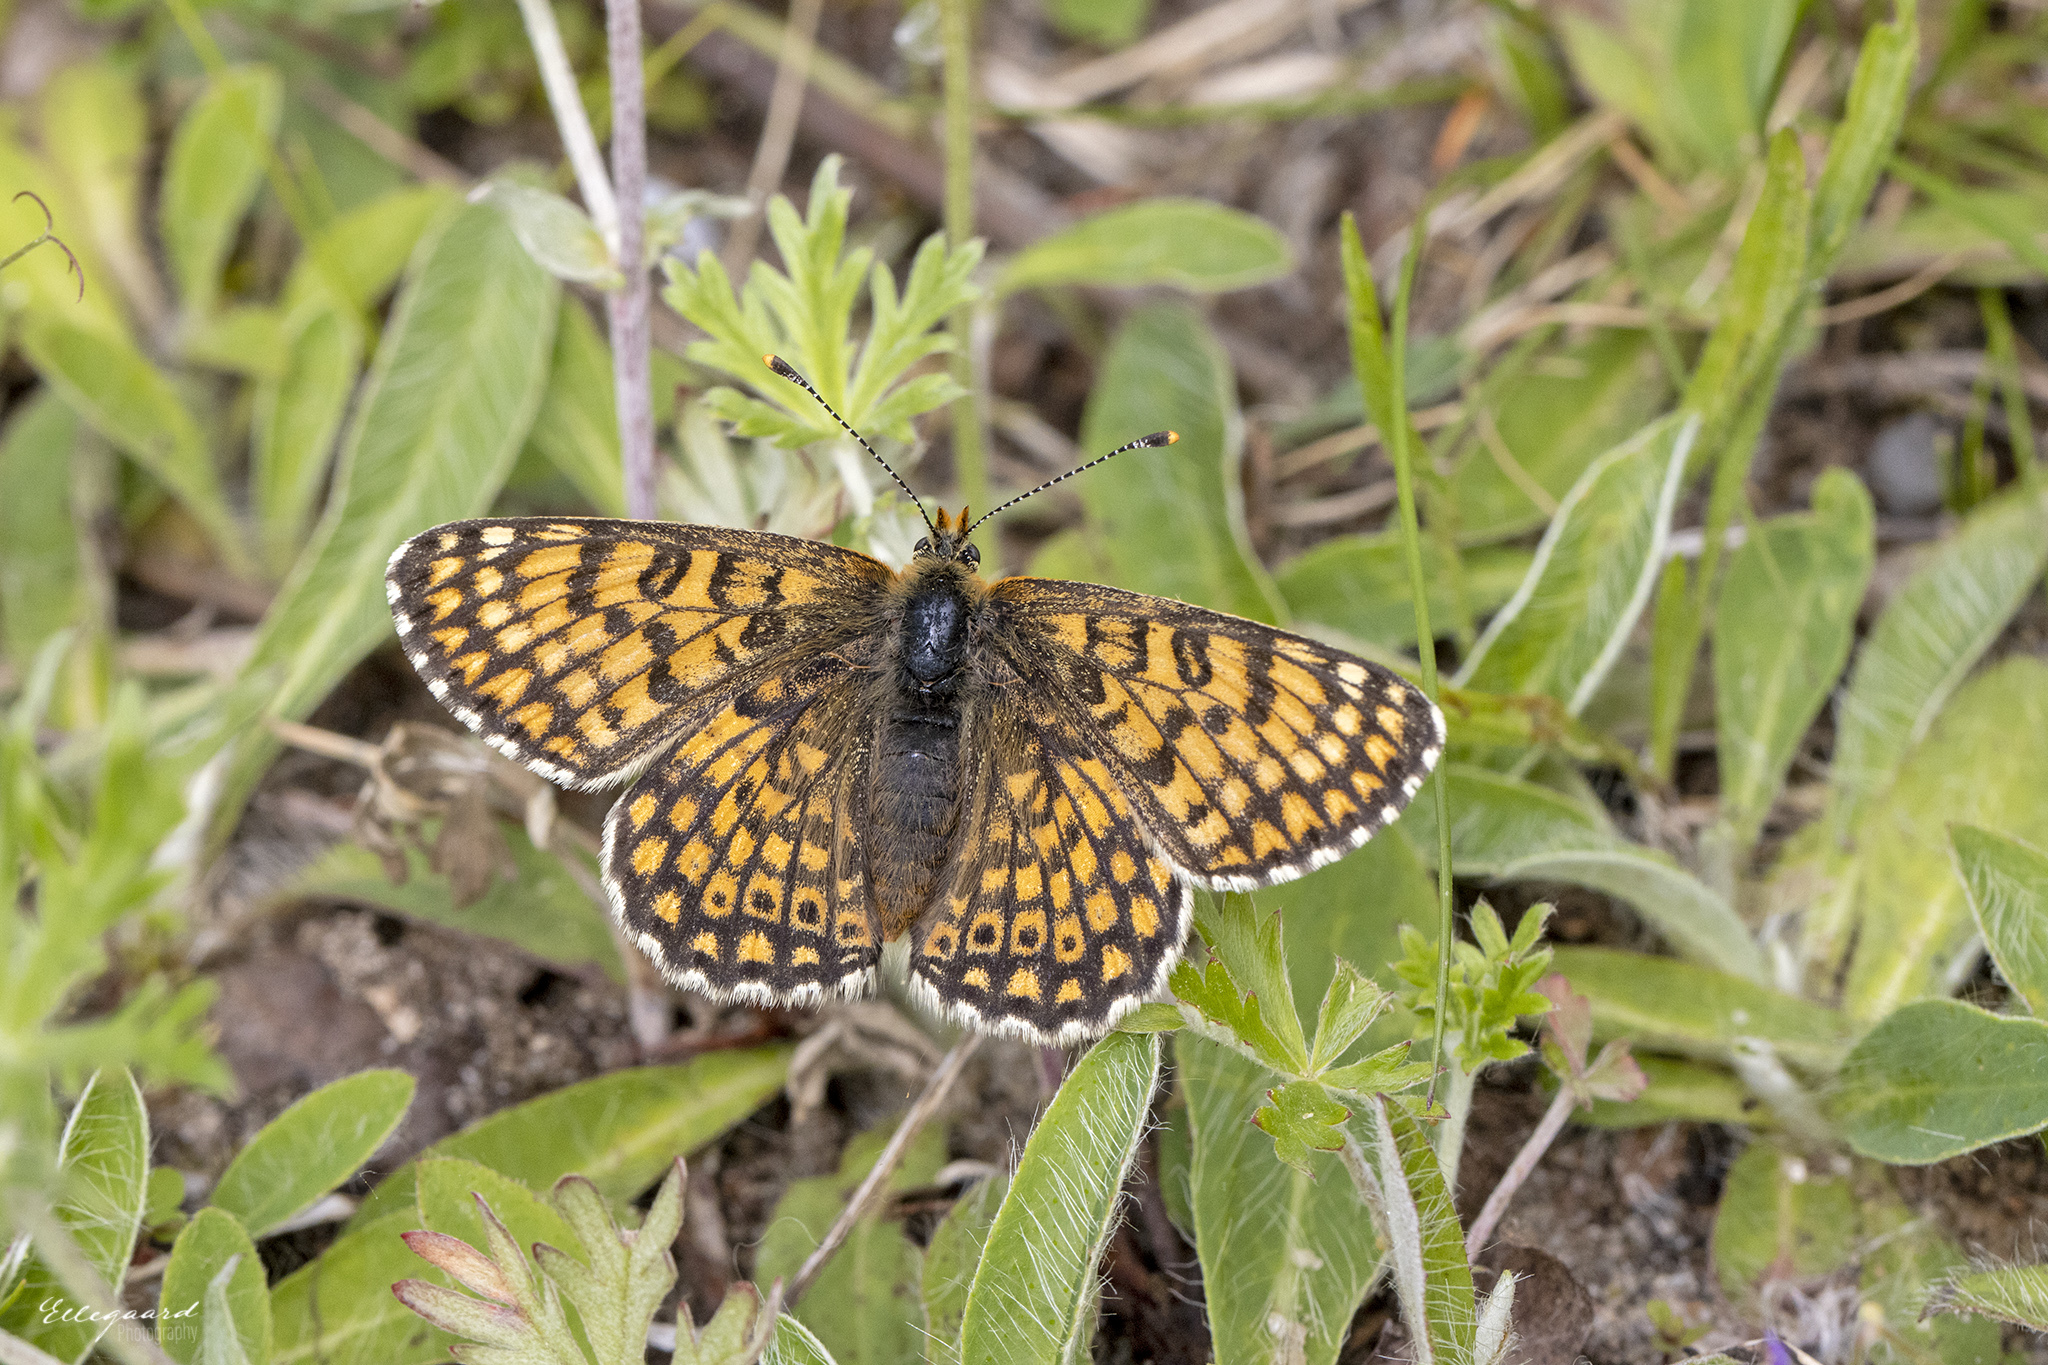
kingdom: Animalia
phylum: Arthropoda
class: Insecta
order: Lepidoptera
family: Nymphalidae
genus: Melitaea
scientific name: Melitaea cinxia
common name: Glanville fritillary
